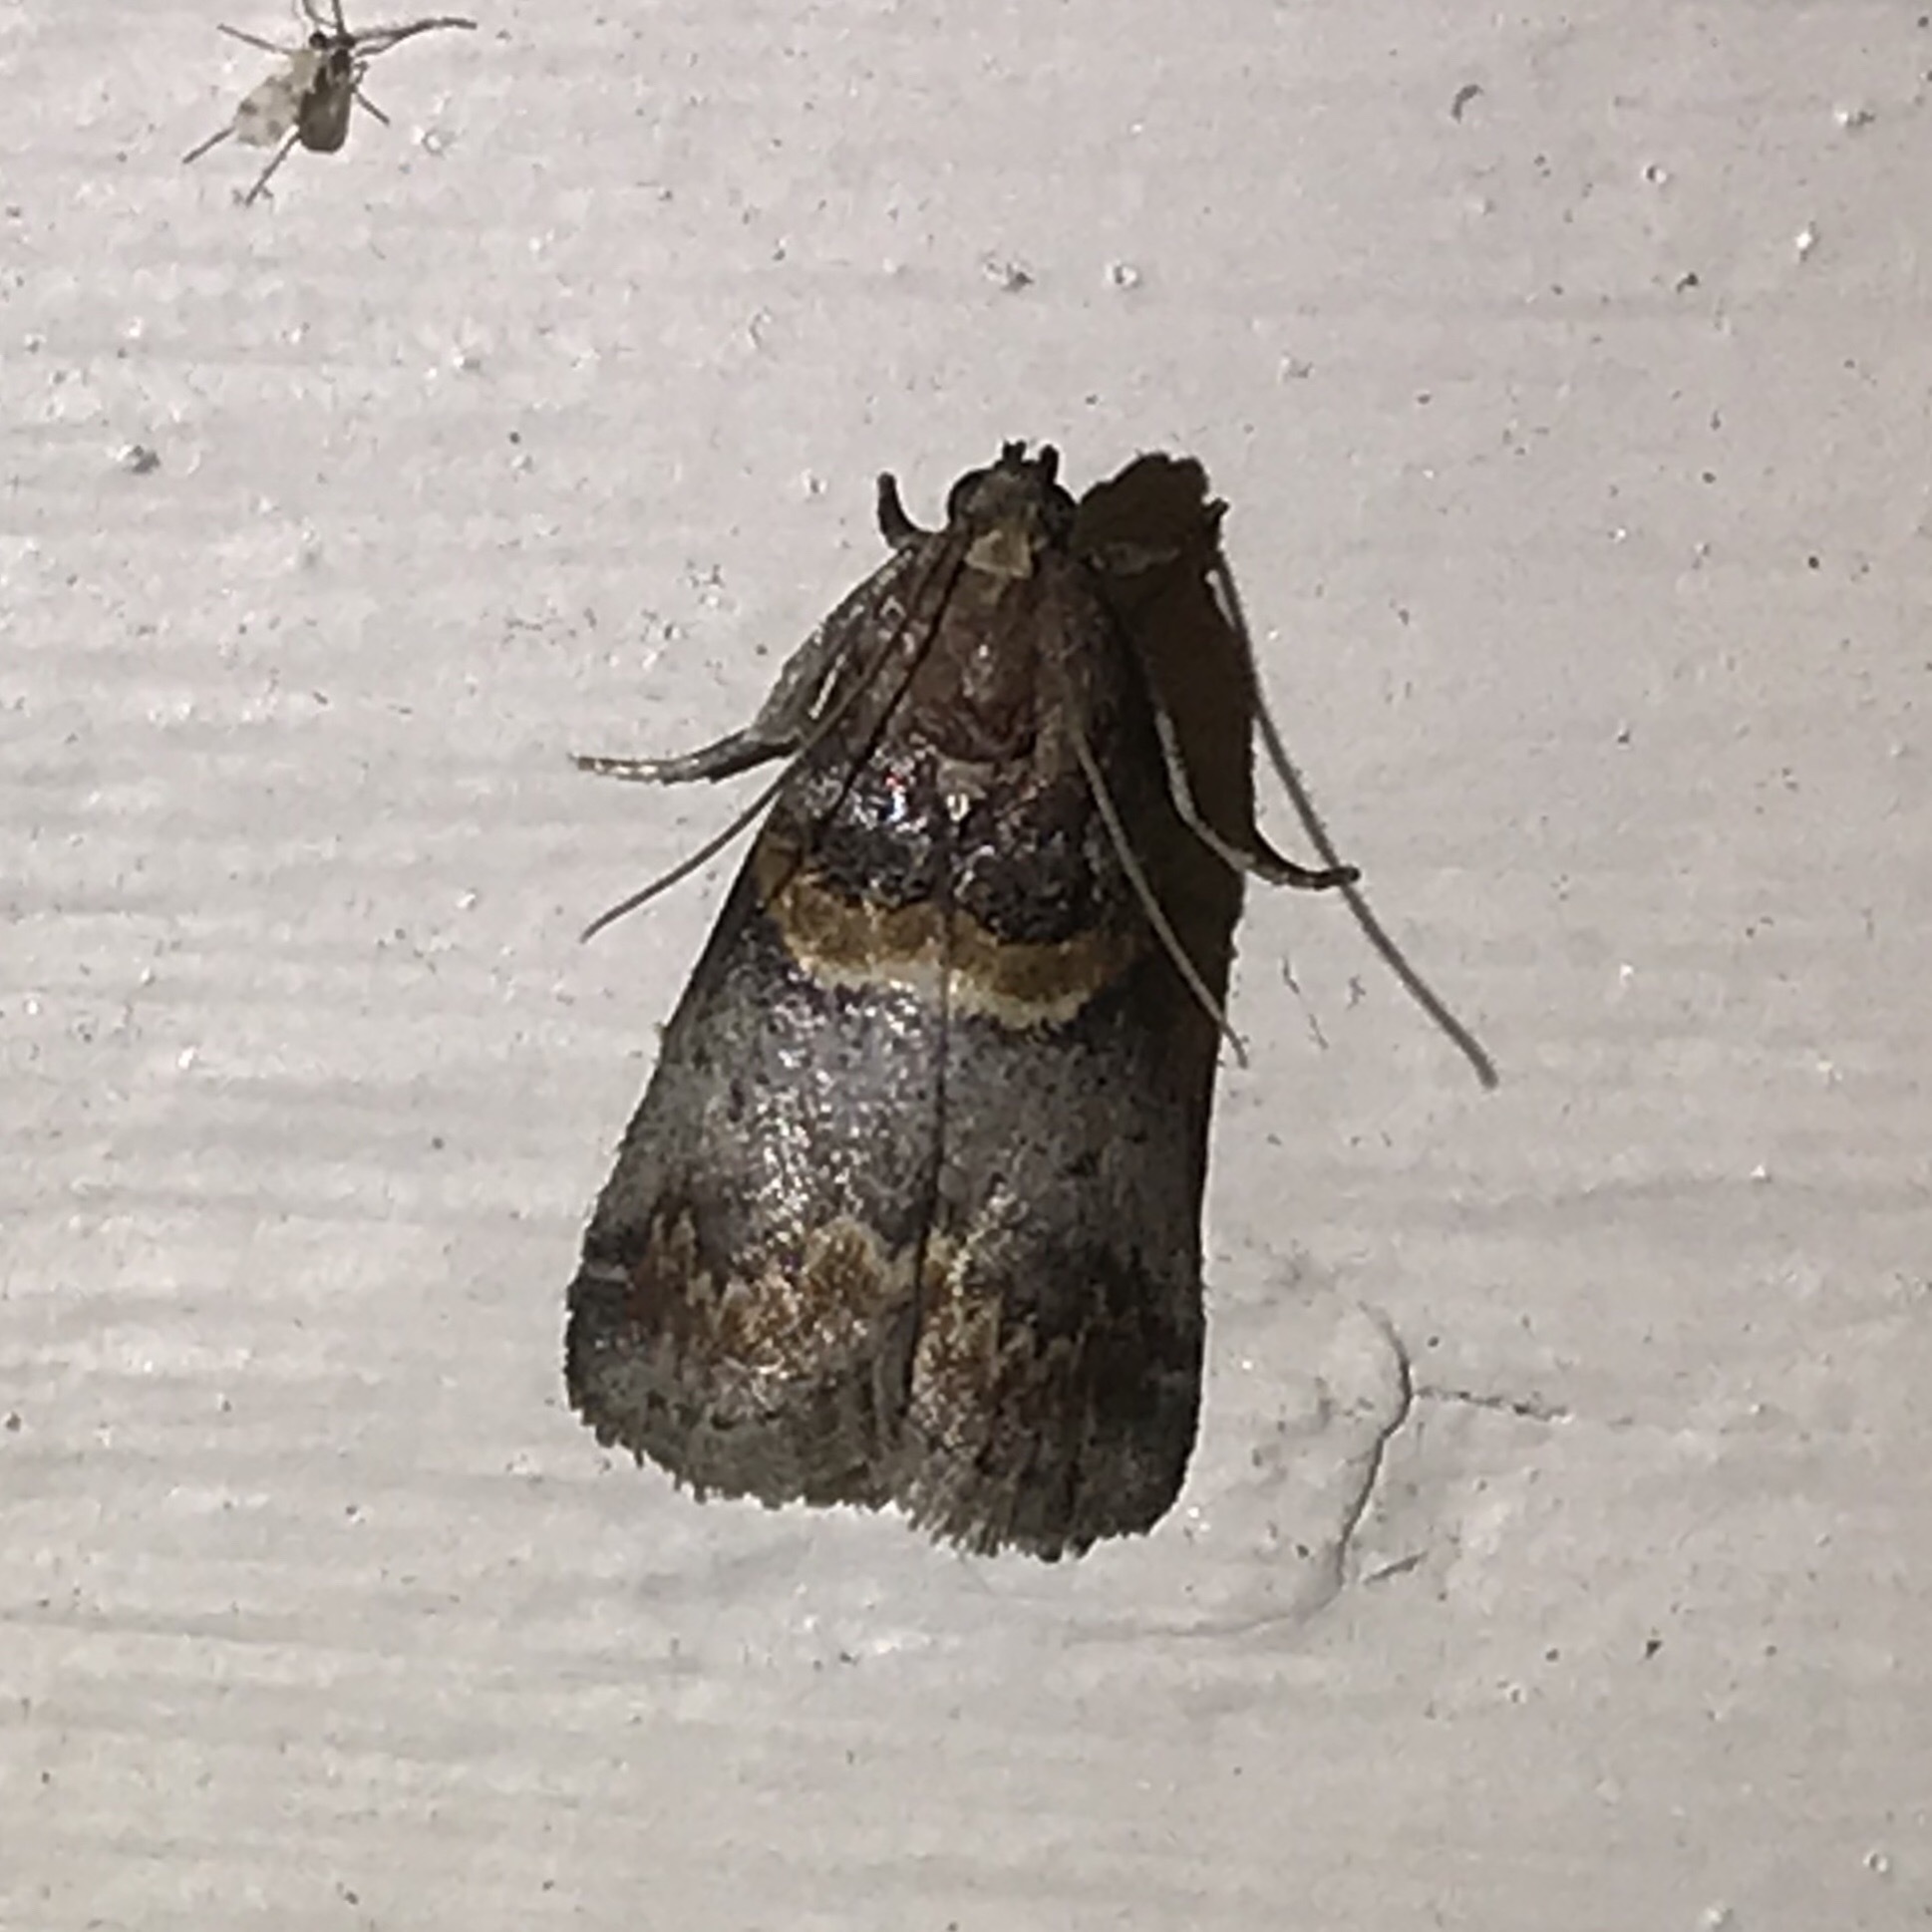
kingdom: Animalia
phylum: Arthropoda
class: Insecta
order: Lepidoptera
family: Pyralidae
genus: Acrobasis
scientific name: Acrobasis angusella
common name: Hickory leafstem borer moth
